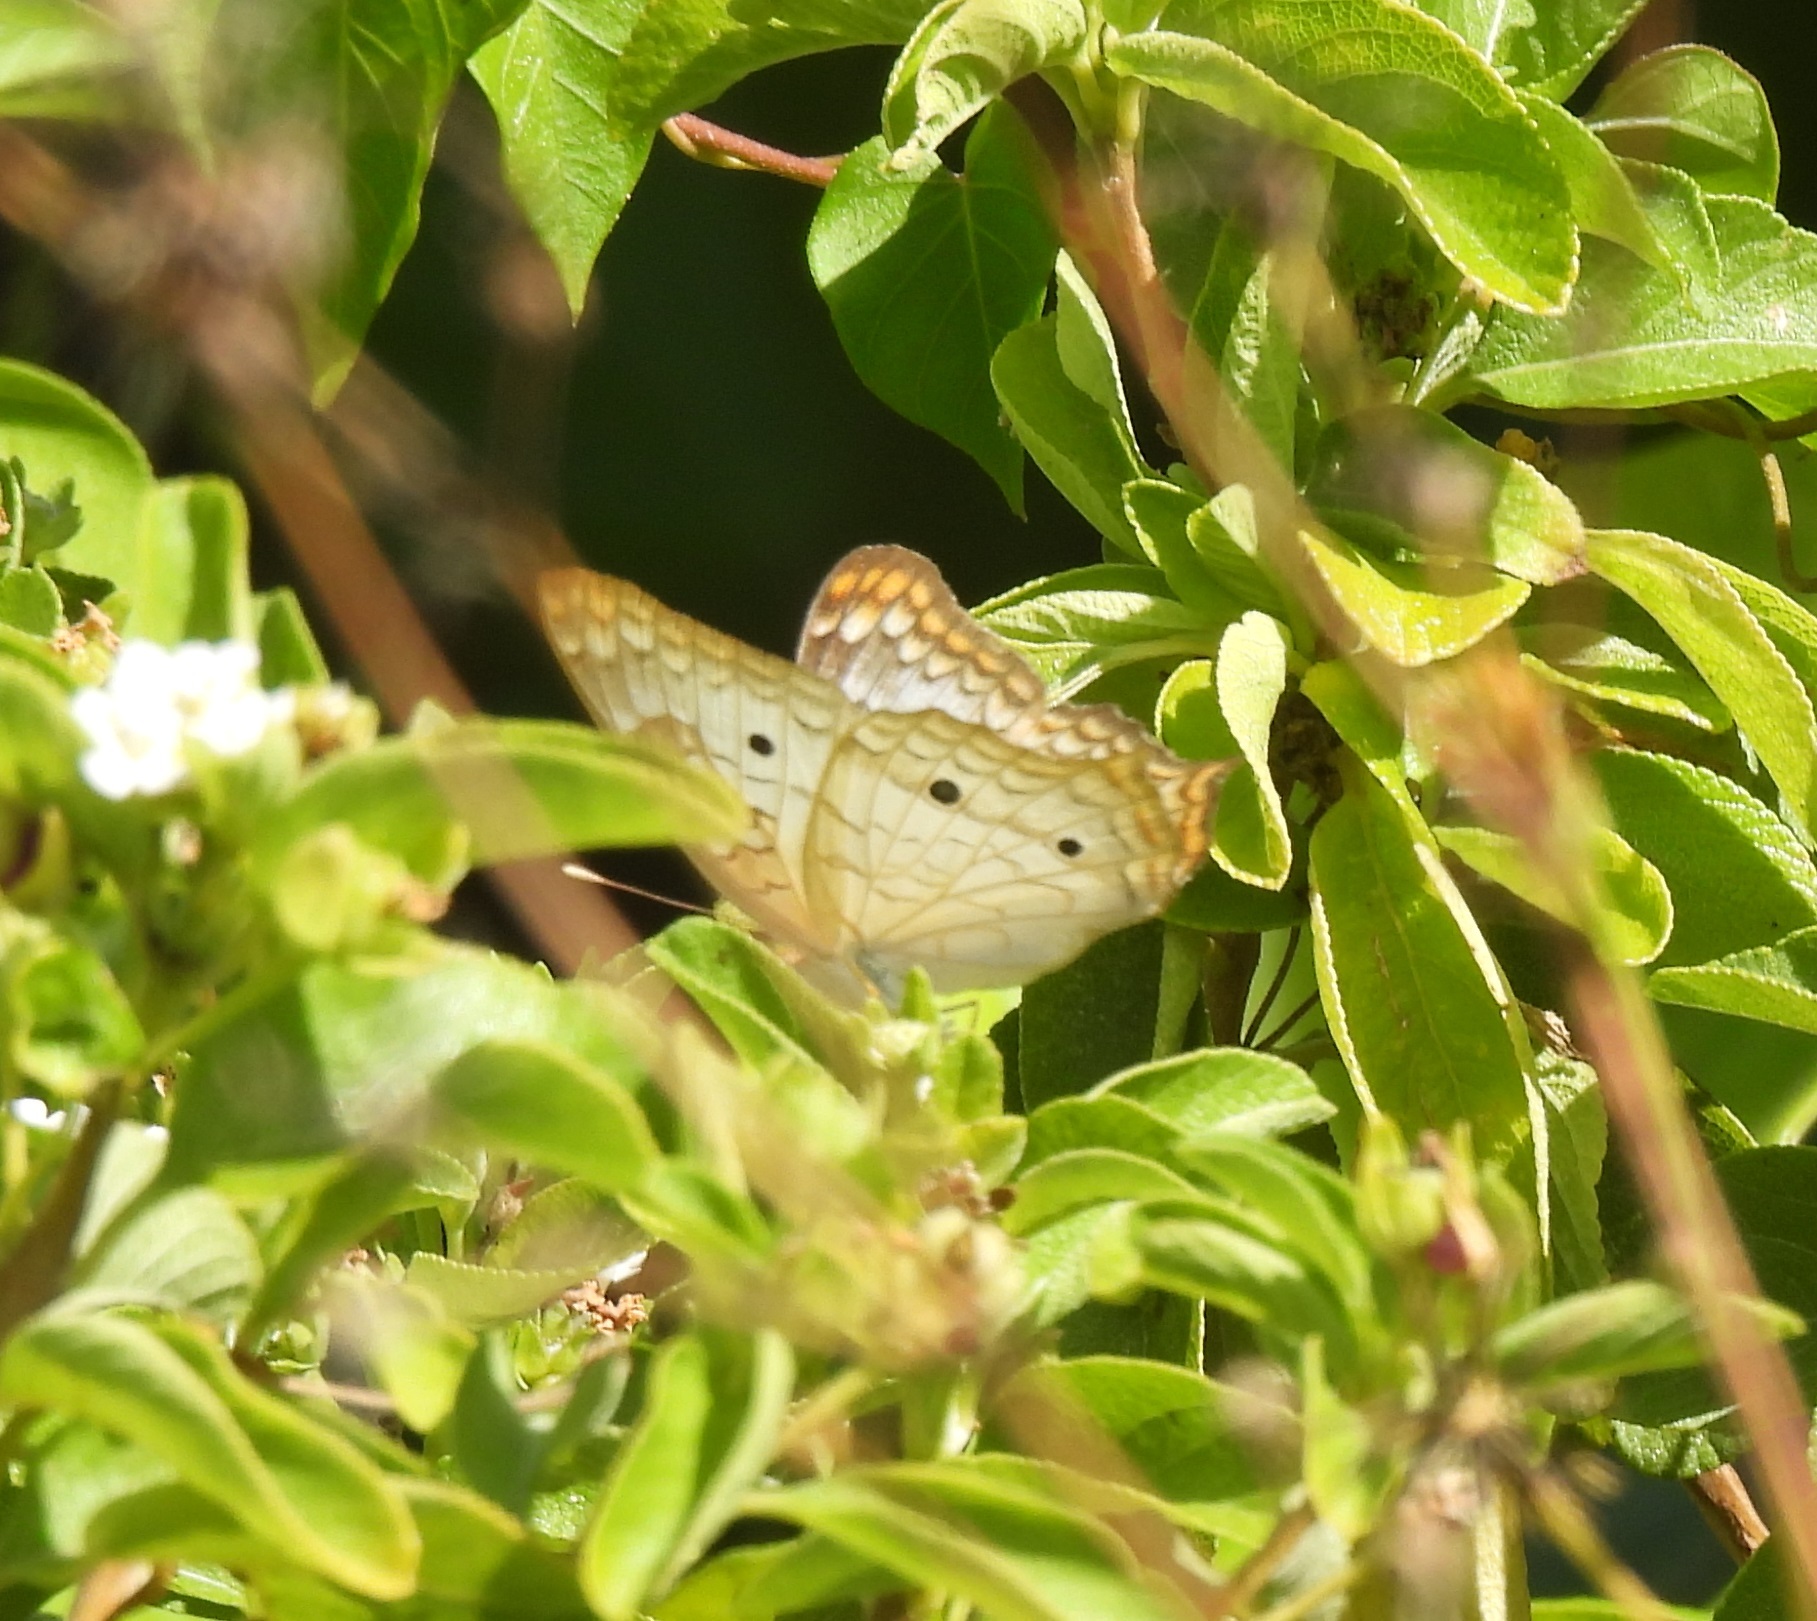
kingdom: Animalia
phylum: Arthropoda
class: Insecta
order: Lepidoptera
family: Nymphalidae
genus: Anartia
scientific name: Anartia jatrophae
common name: White peacock
